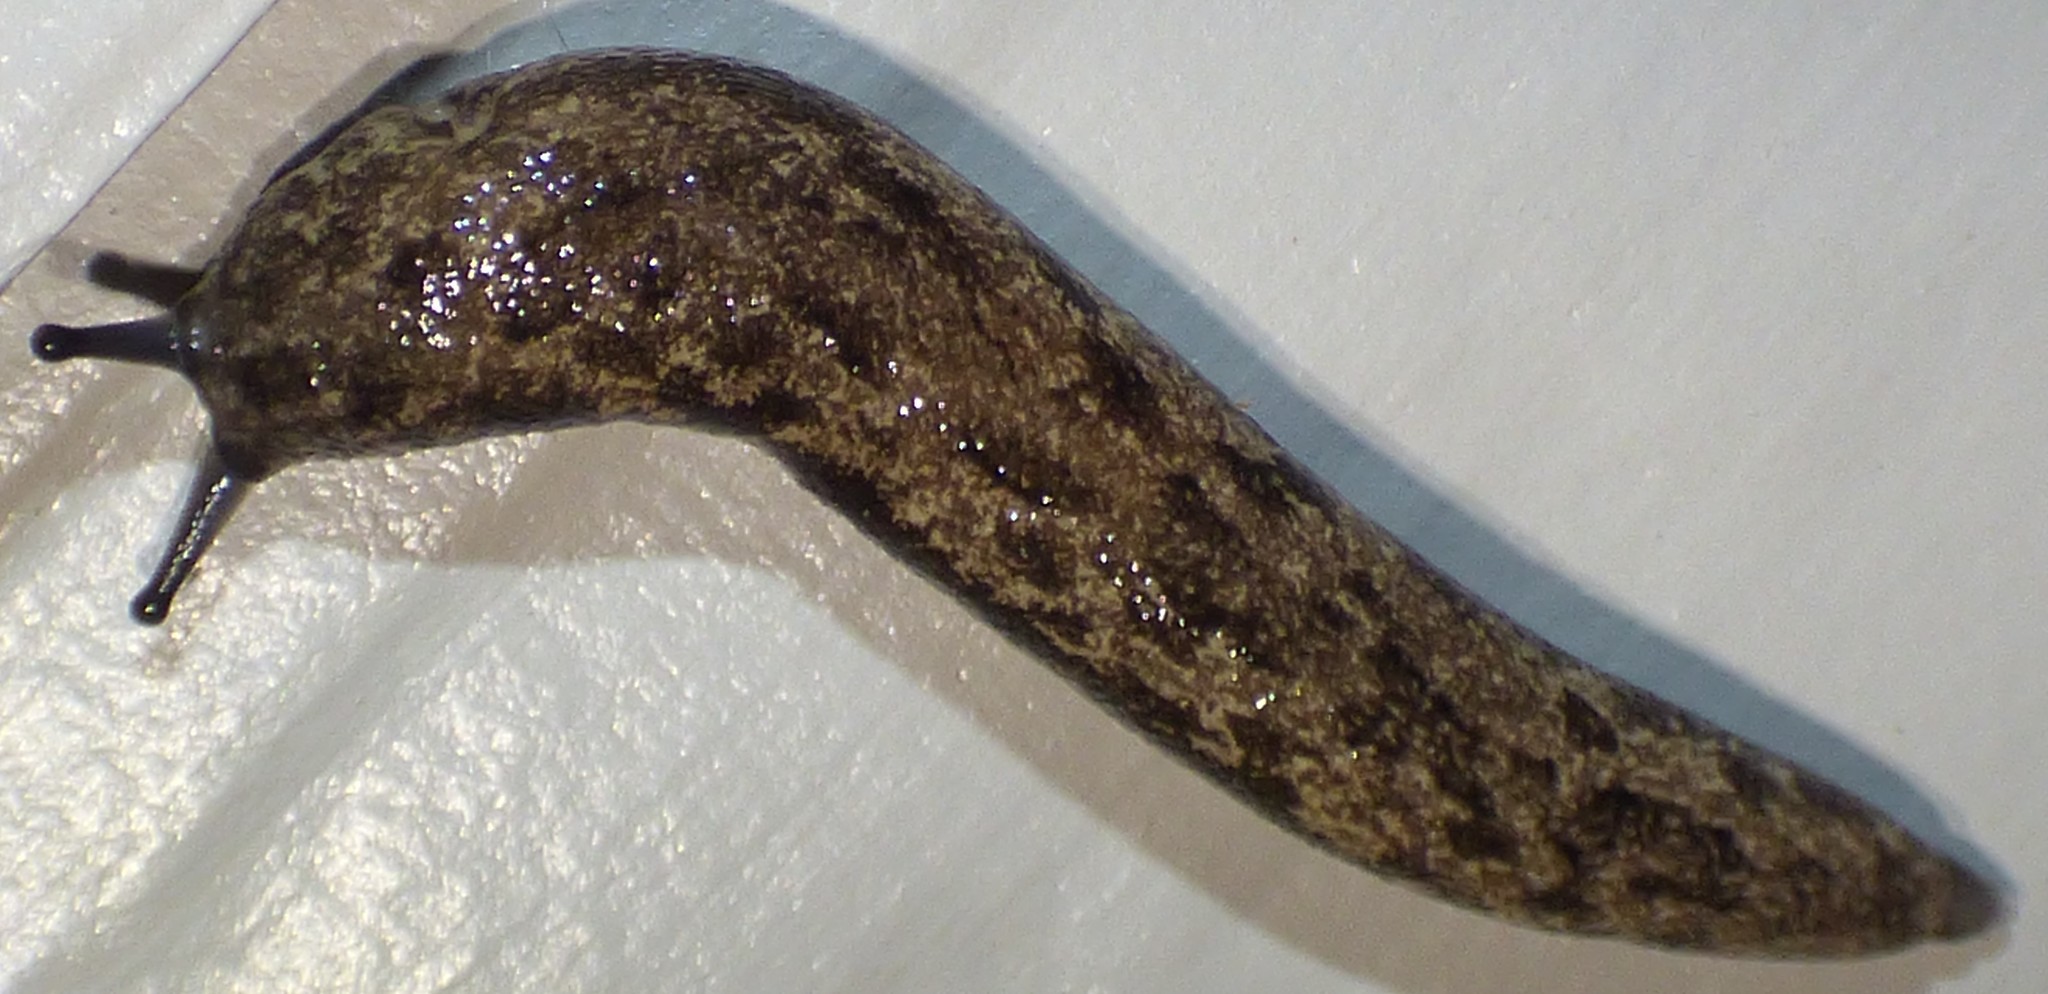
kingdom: Animalia
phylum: Mollusca
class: Gastropoda
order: Stylommatophora
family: Philomycidae
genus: Megapallifera
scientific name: Megapallifera mutabilis
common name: Changeable mantleslug
